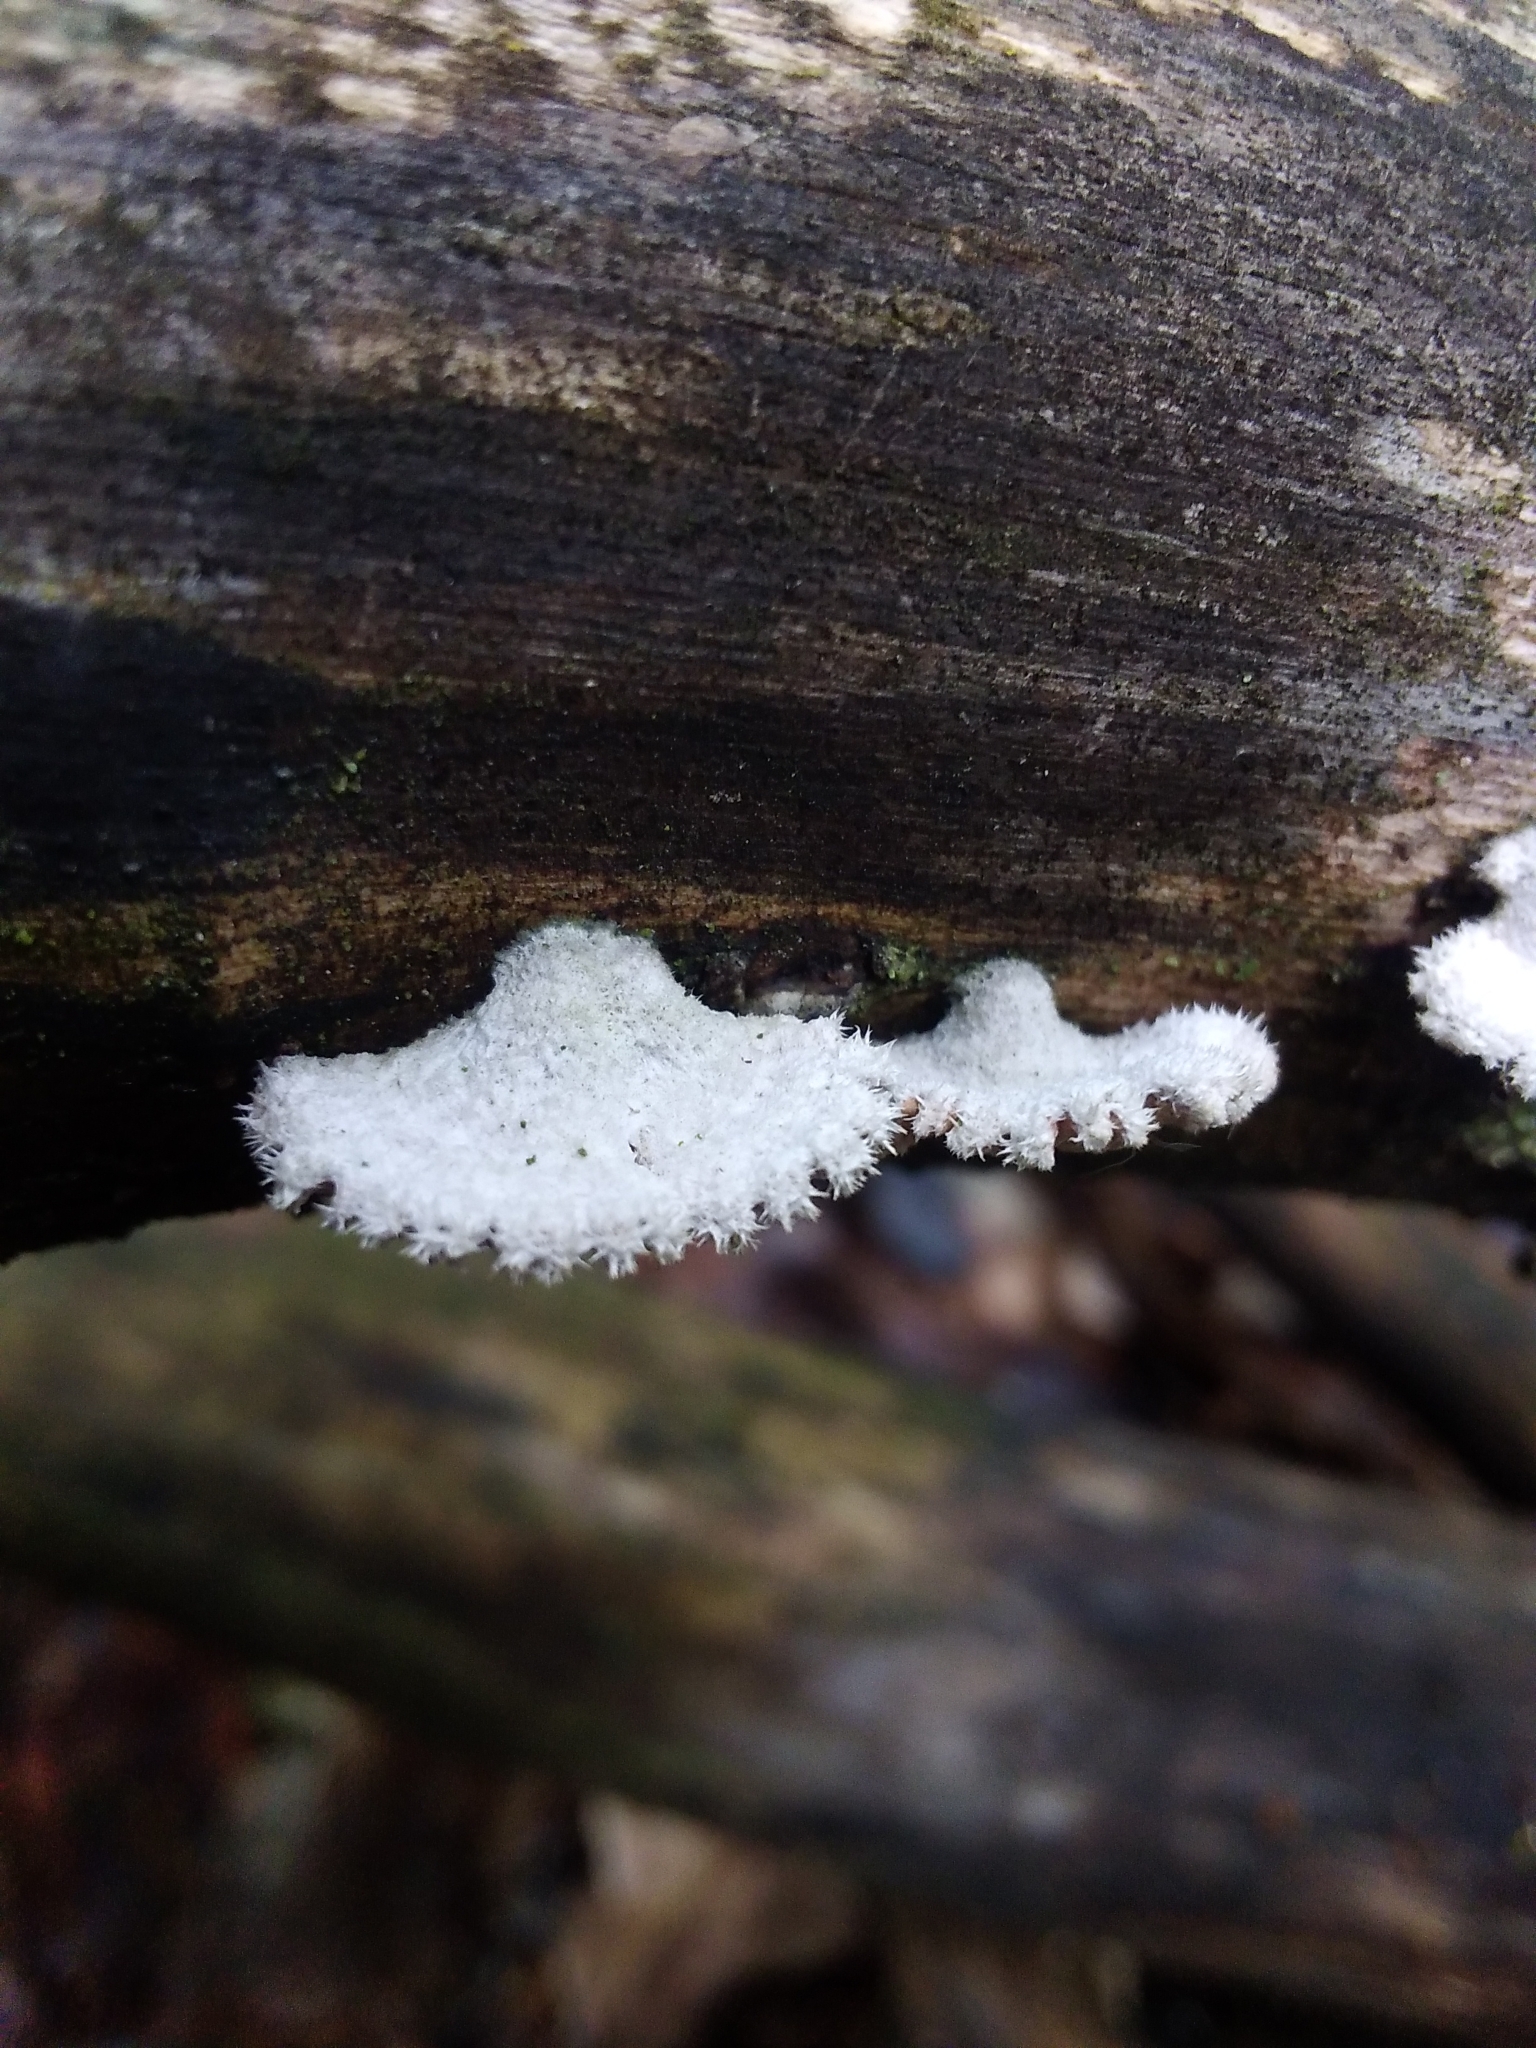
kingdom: Fungi
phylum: Basidiomycota
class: Agaricomycetes
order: Agaricales
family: Schizophyllaceae
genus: Schizophyllum
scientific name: Schizophyllum commune
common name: Common porecrust
